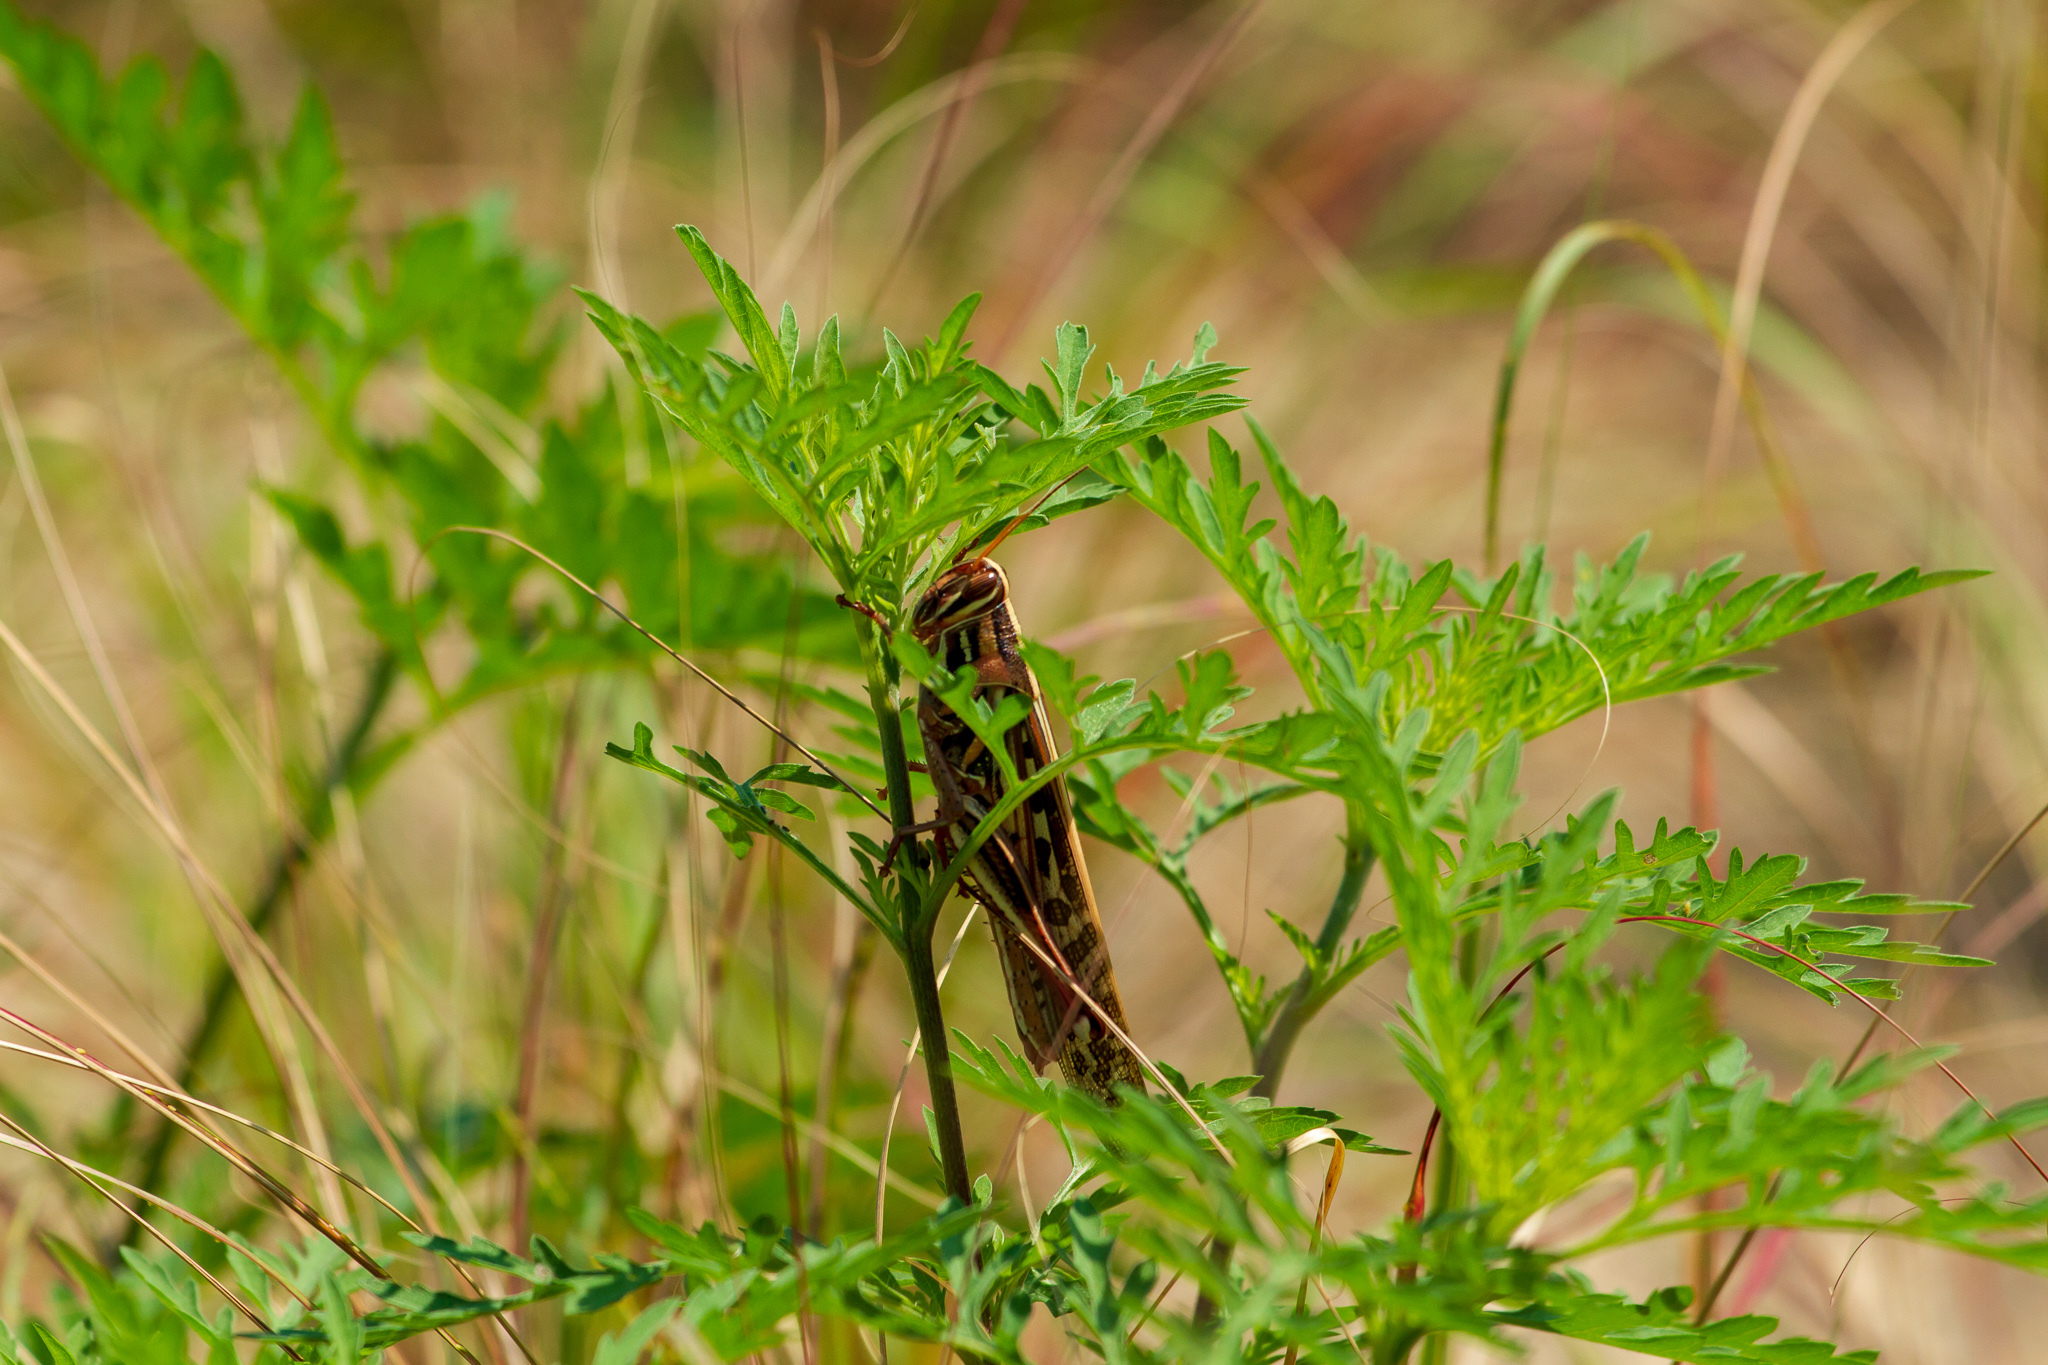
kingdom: Animalia
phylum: Arthropoda
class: Insecta
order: Orthoptera
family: Acrididae
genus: Schistocerca
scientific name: Schistocerca americana
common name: American bird locust
